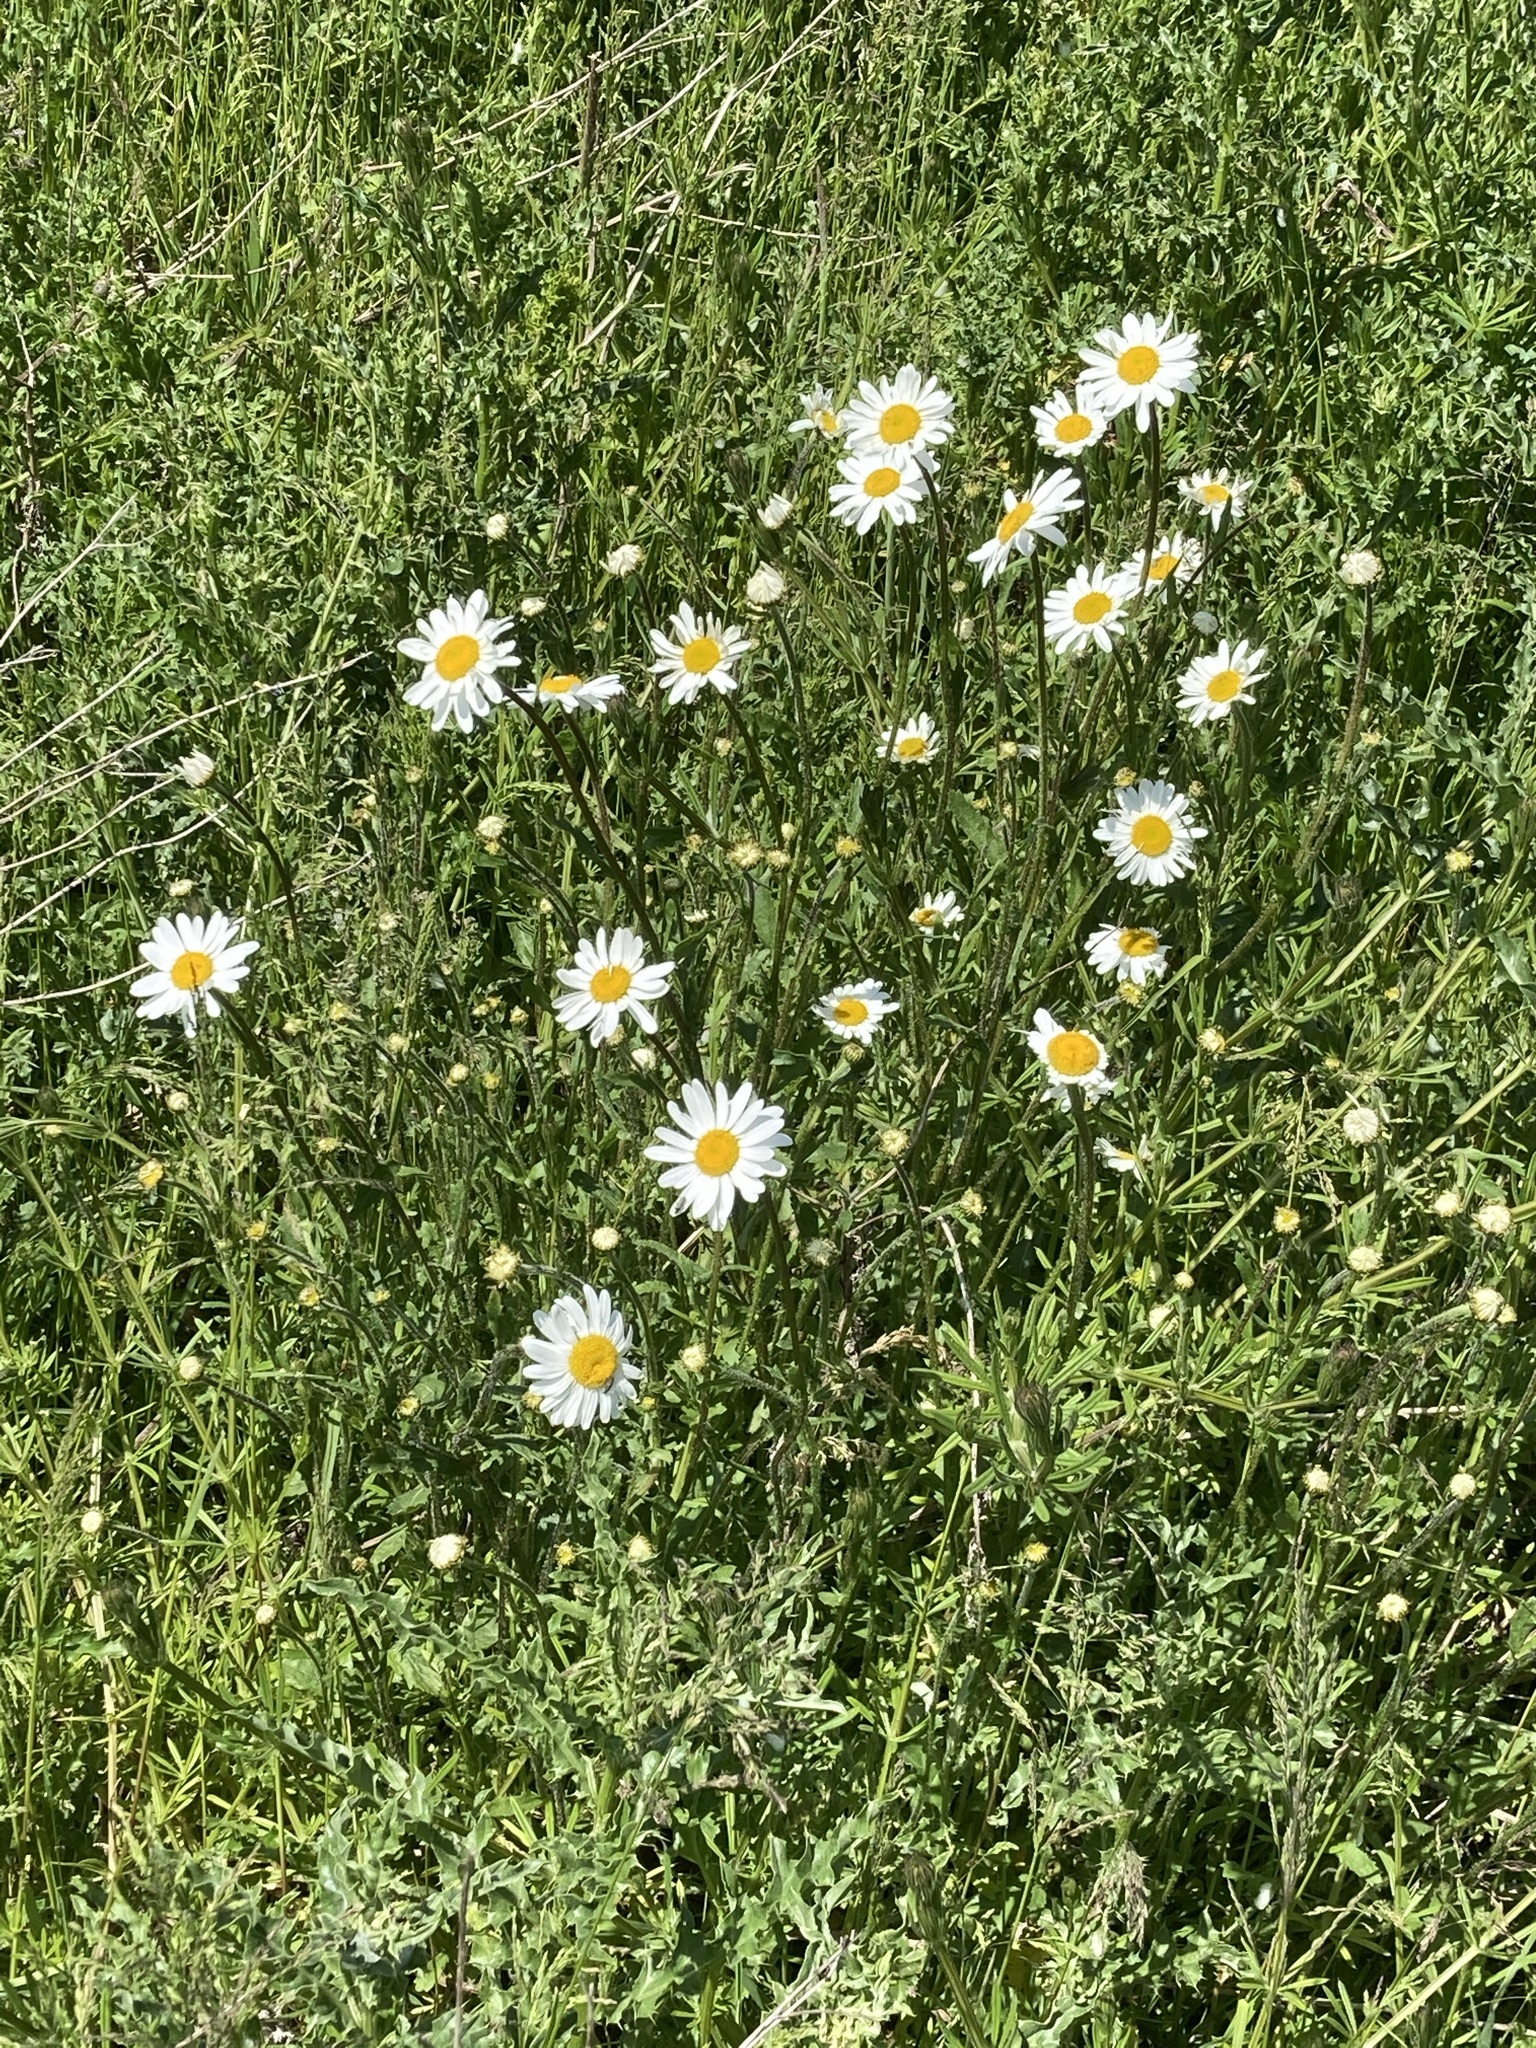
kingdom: Plantae
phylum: Tracheophyta
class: Magnoliopsida
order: Asterales
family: Asteraceae
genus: Leucanthemum
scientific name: Leucanthemum vulgare
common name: Oxeye daisy
